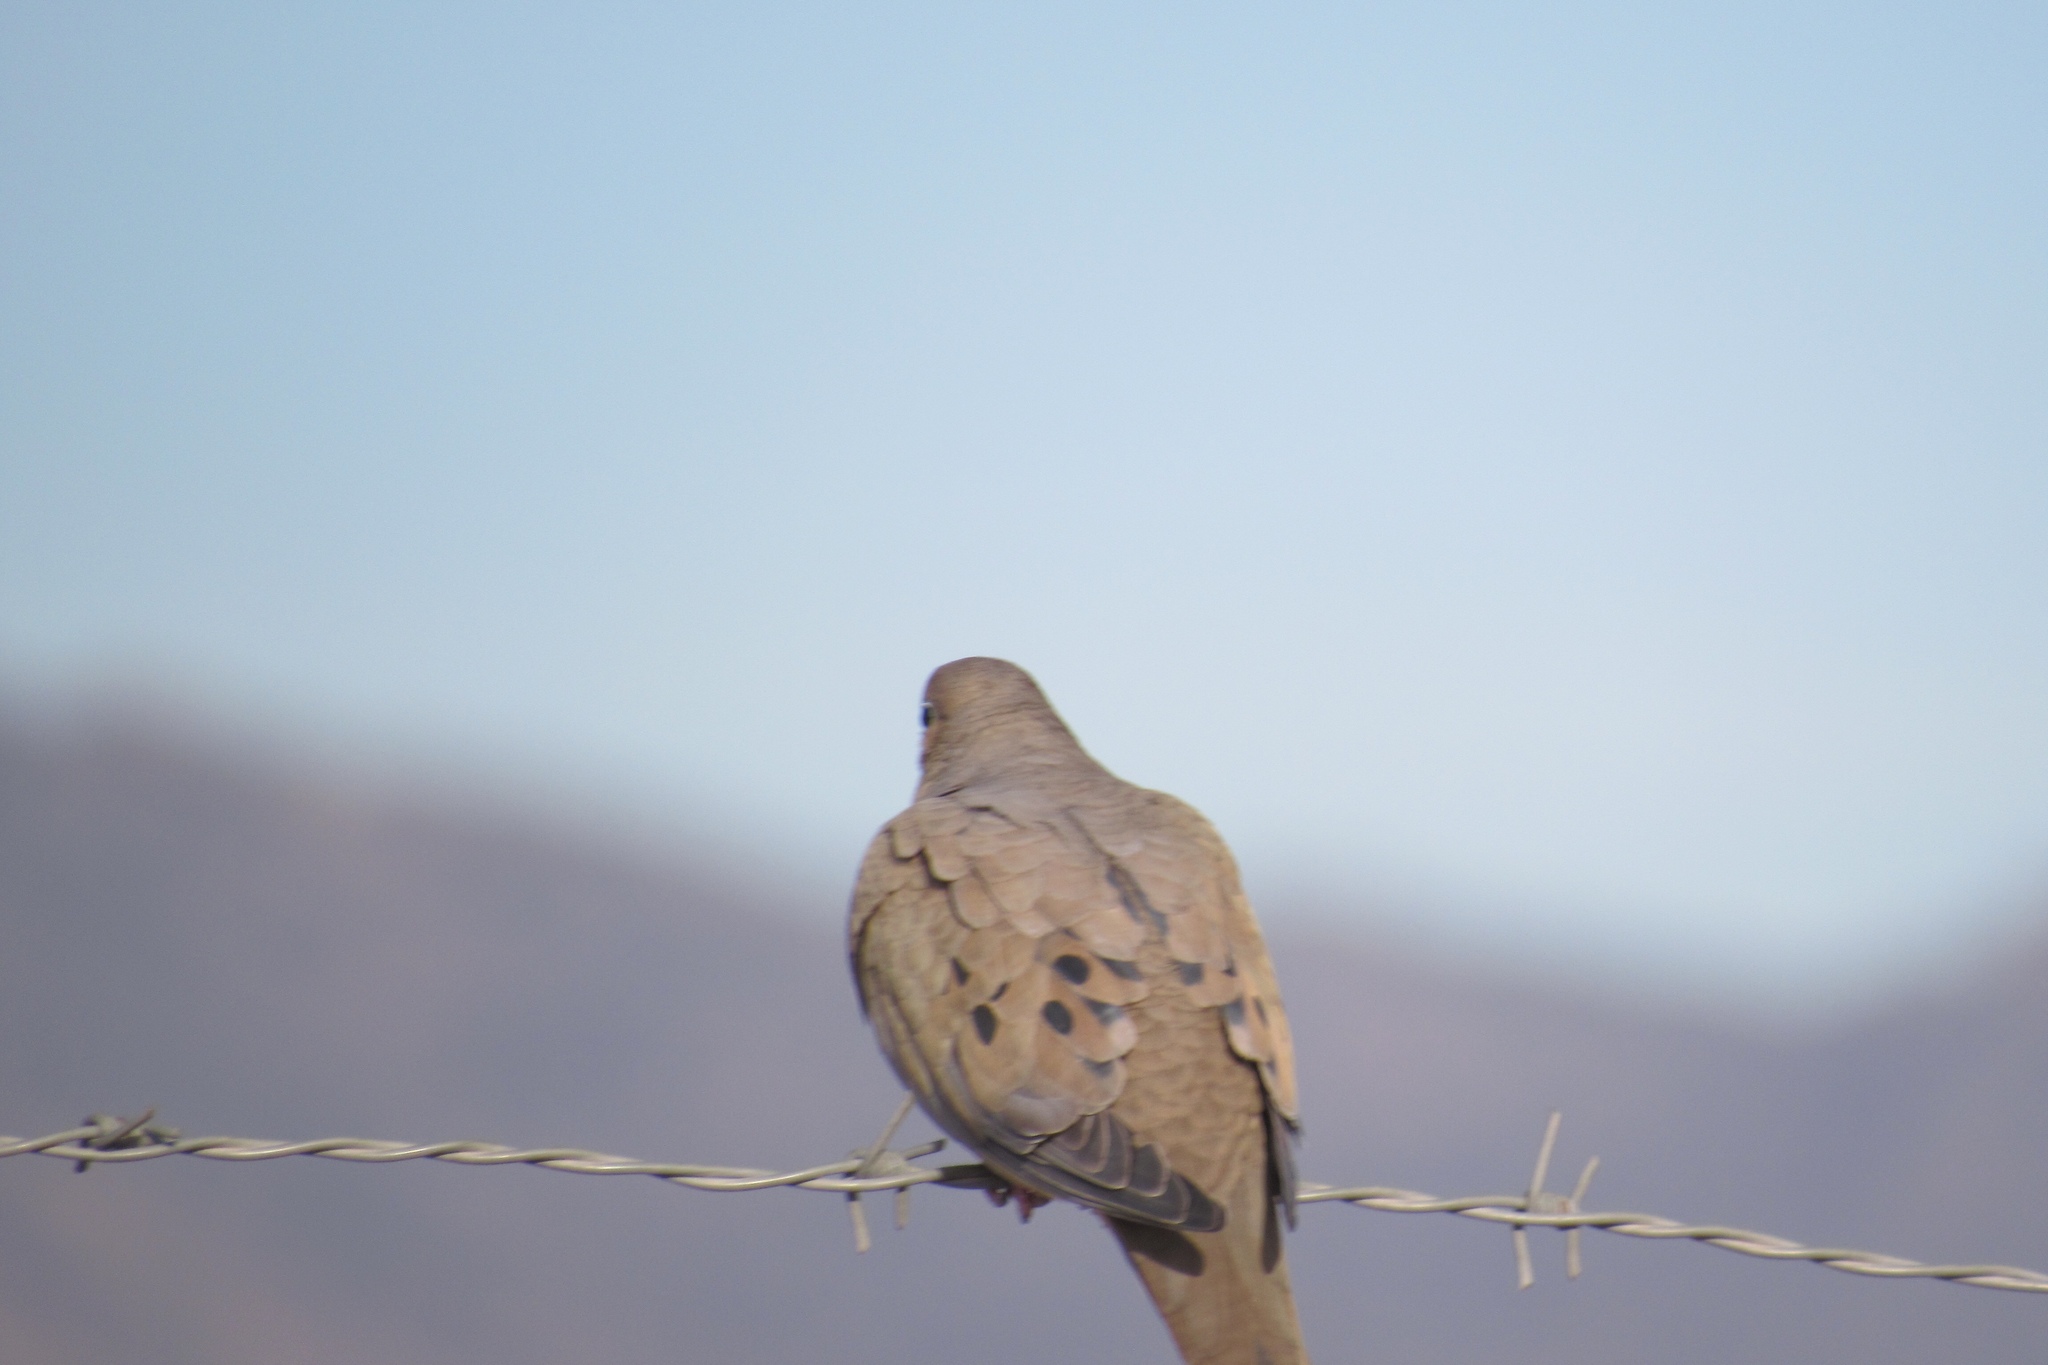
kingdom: Animalia
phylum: Chordata
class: Aves
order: Columbiformes
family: Columbidae
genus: Zenaida
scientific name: Zenaida macroura
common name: Mourning dove
